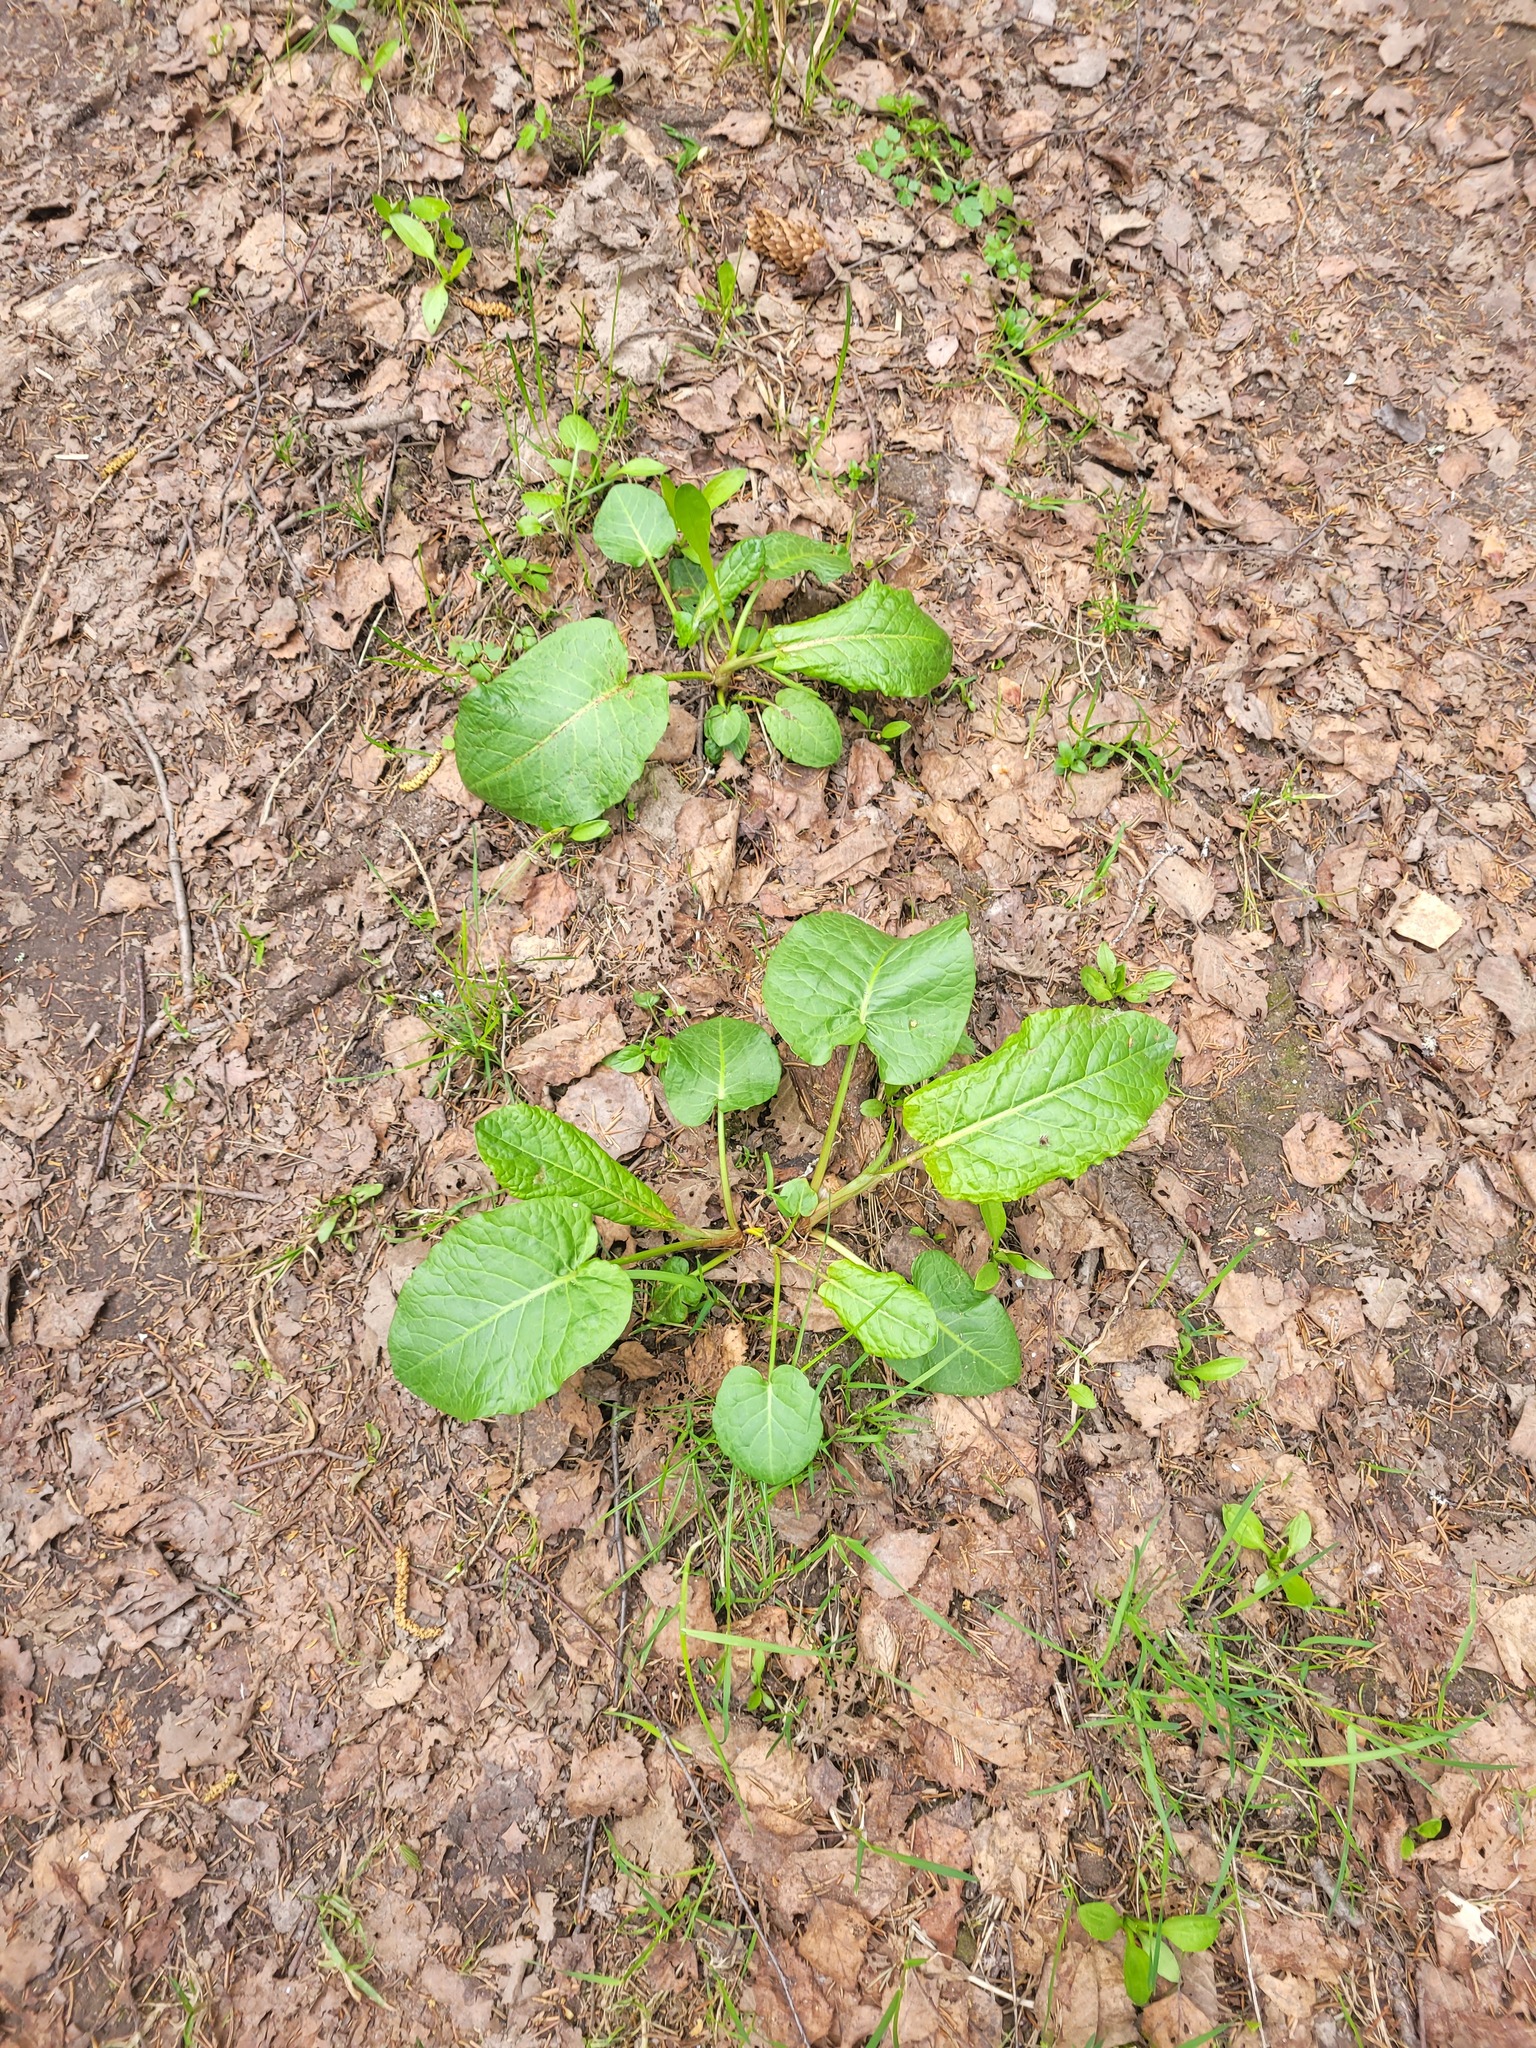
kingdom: Plantae
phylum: Tracheophyta
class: Magnoliopsida
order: Caryophyllales
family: Polygonaceae
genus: Rumex
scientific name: Rumex obtusifolius
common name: Bitter dock
